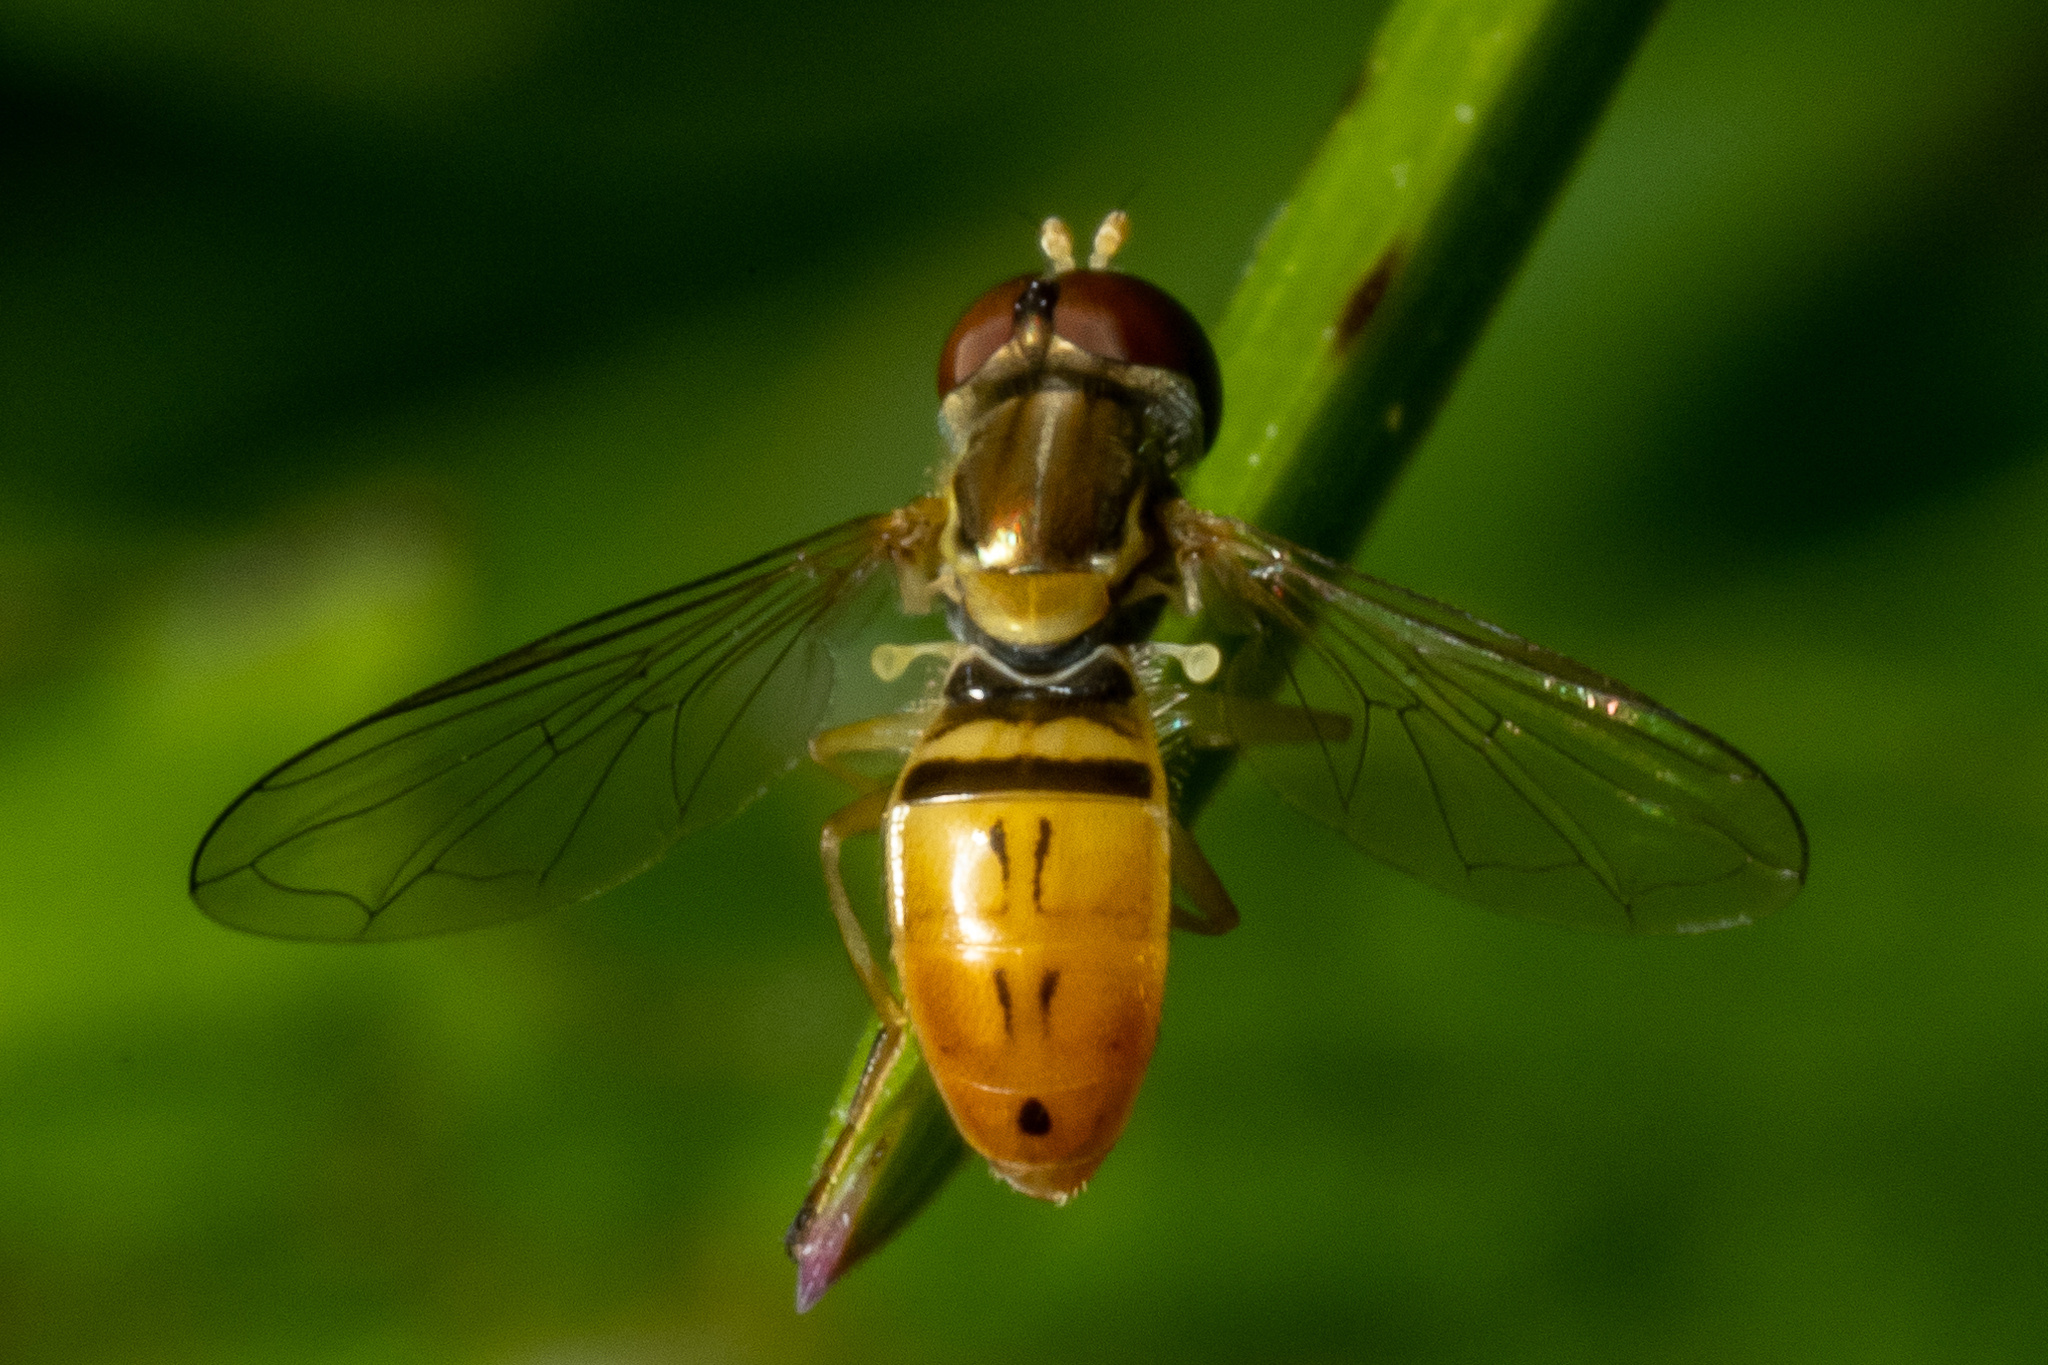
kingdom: Animalia
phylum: Arthropoda
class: Insecta
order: Diptera
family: Syrphidae
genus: Toxomerus
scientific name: Toxomerus marginatus
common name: Syrphid fly
